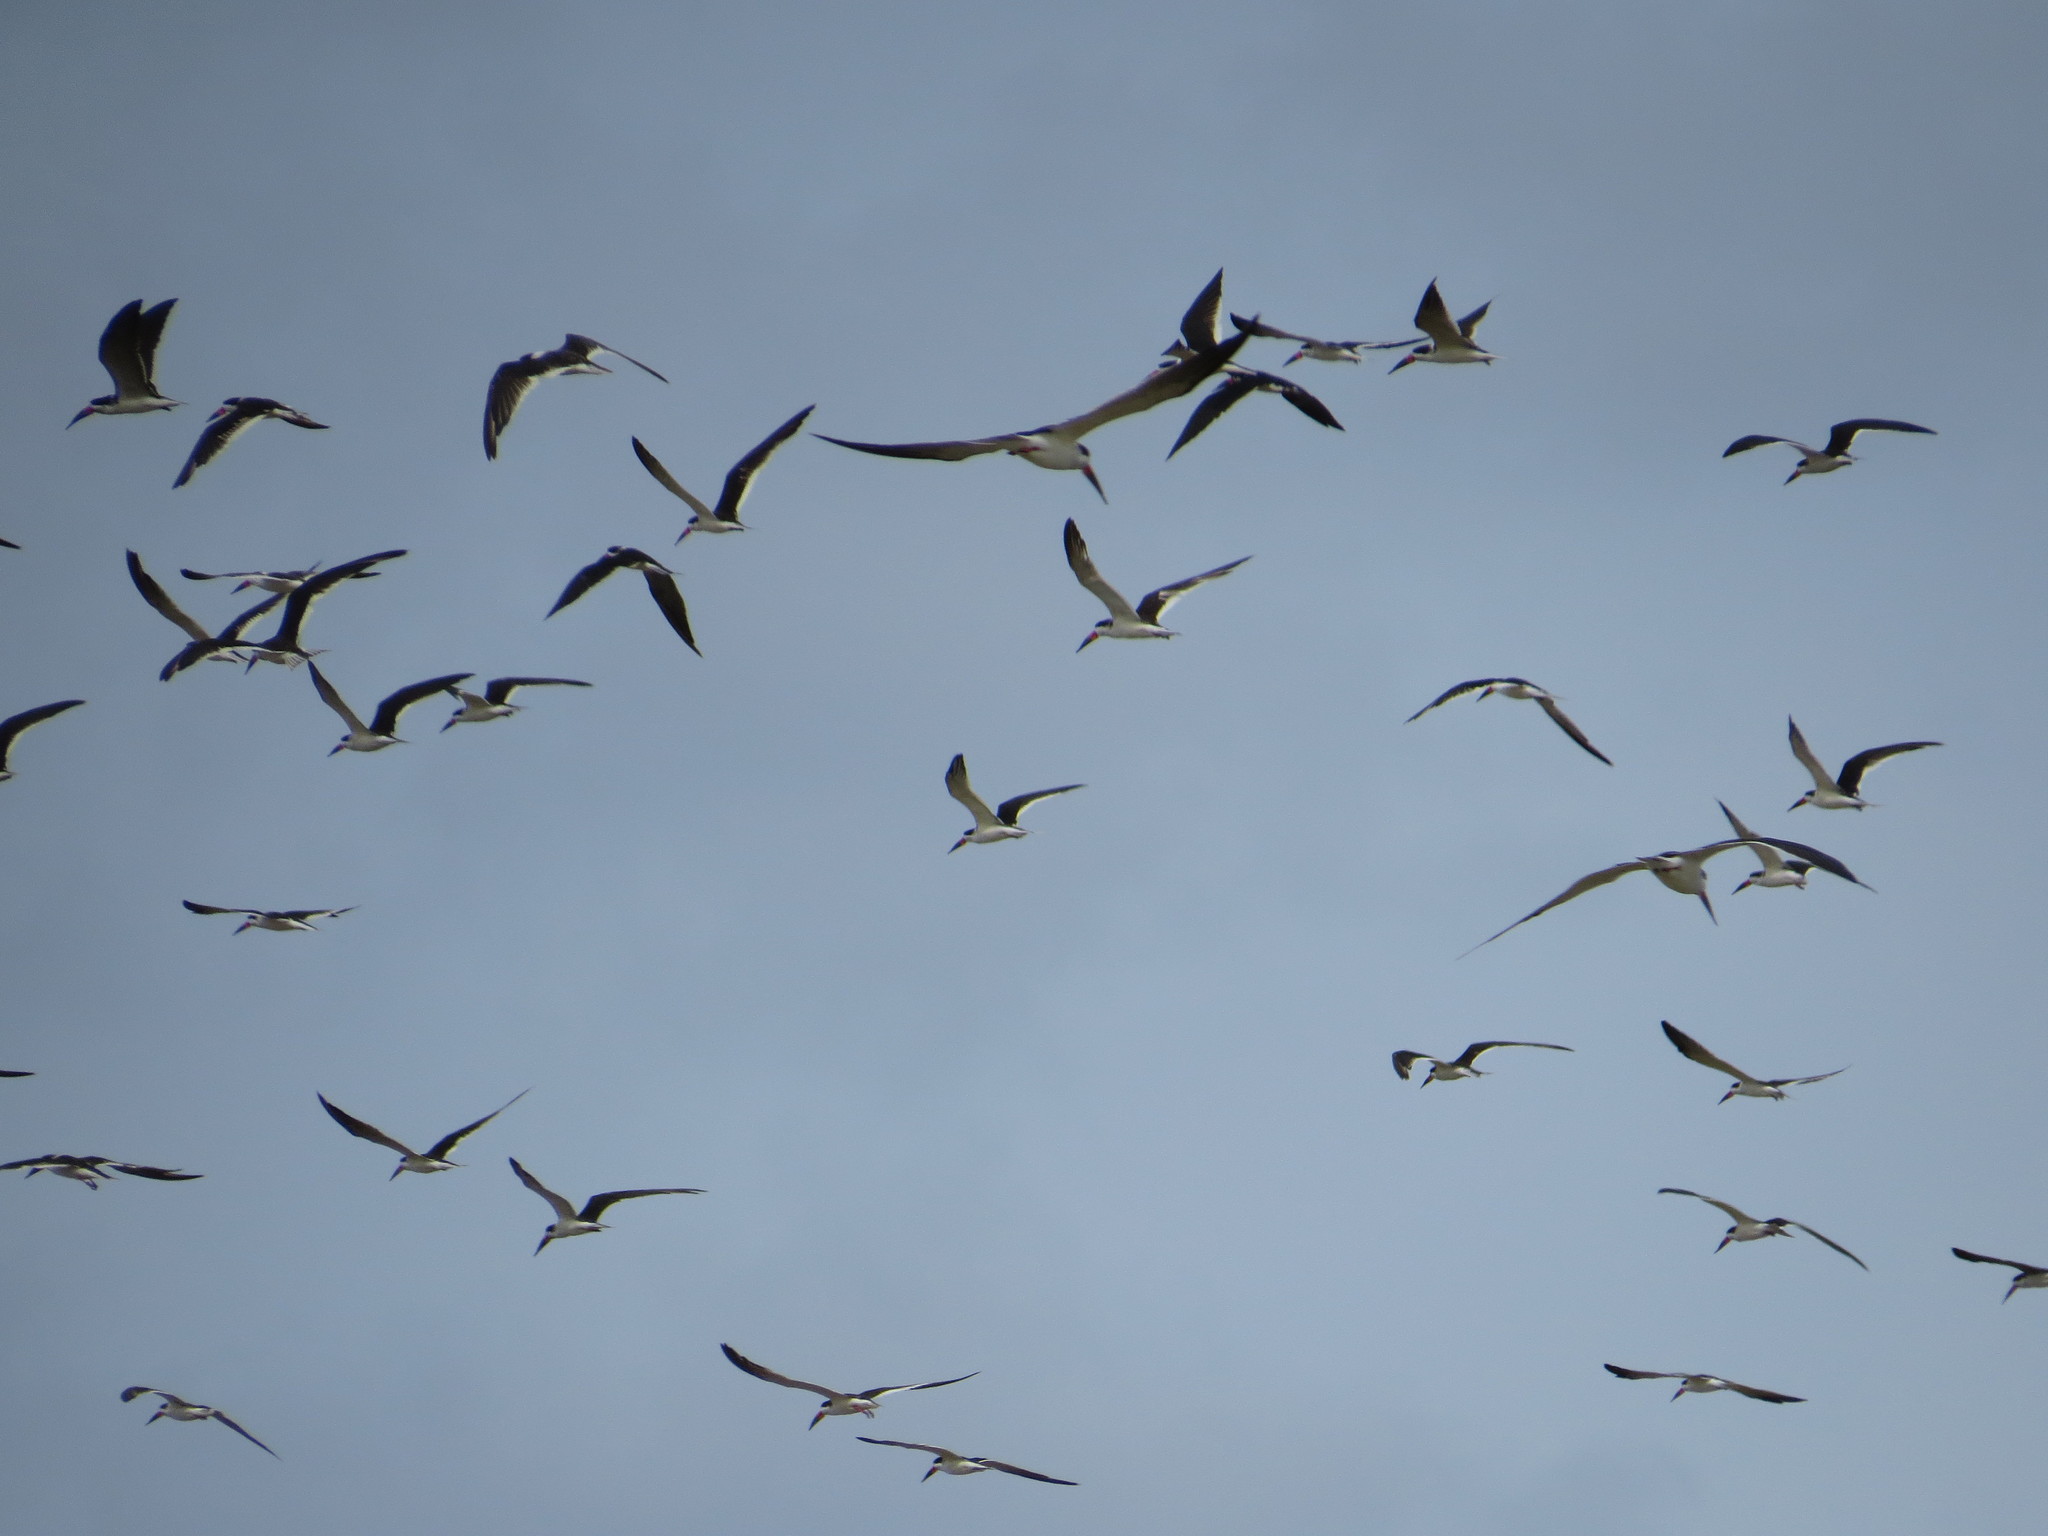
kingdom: Animalia
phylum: Chordata
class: Aves
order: Charadriiformes
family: Laridae
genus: Rynchops
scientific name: Rynchops niger
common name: Black skimmer
